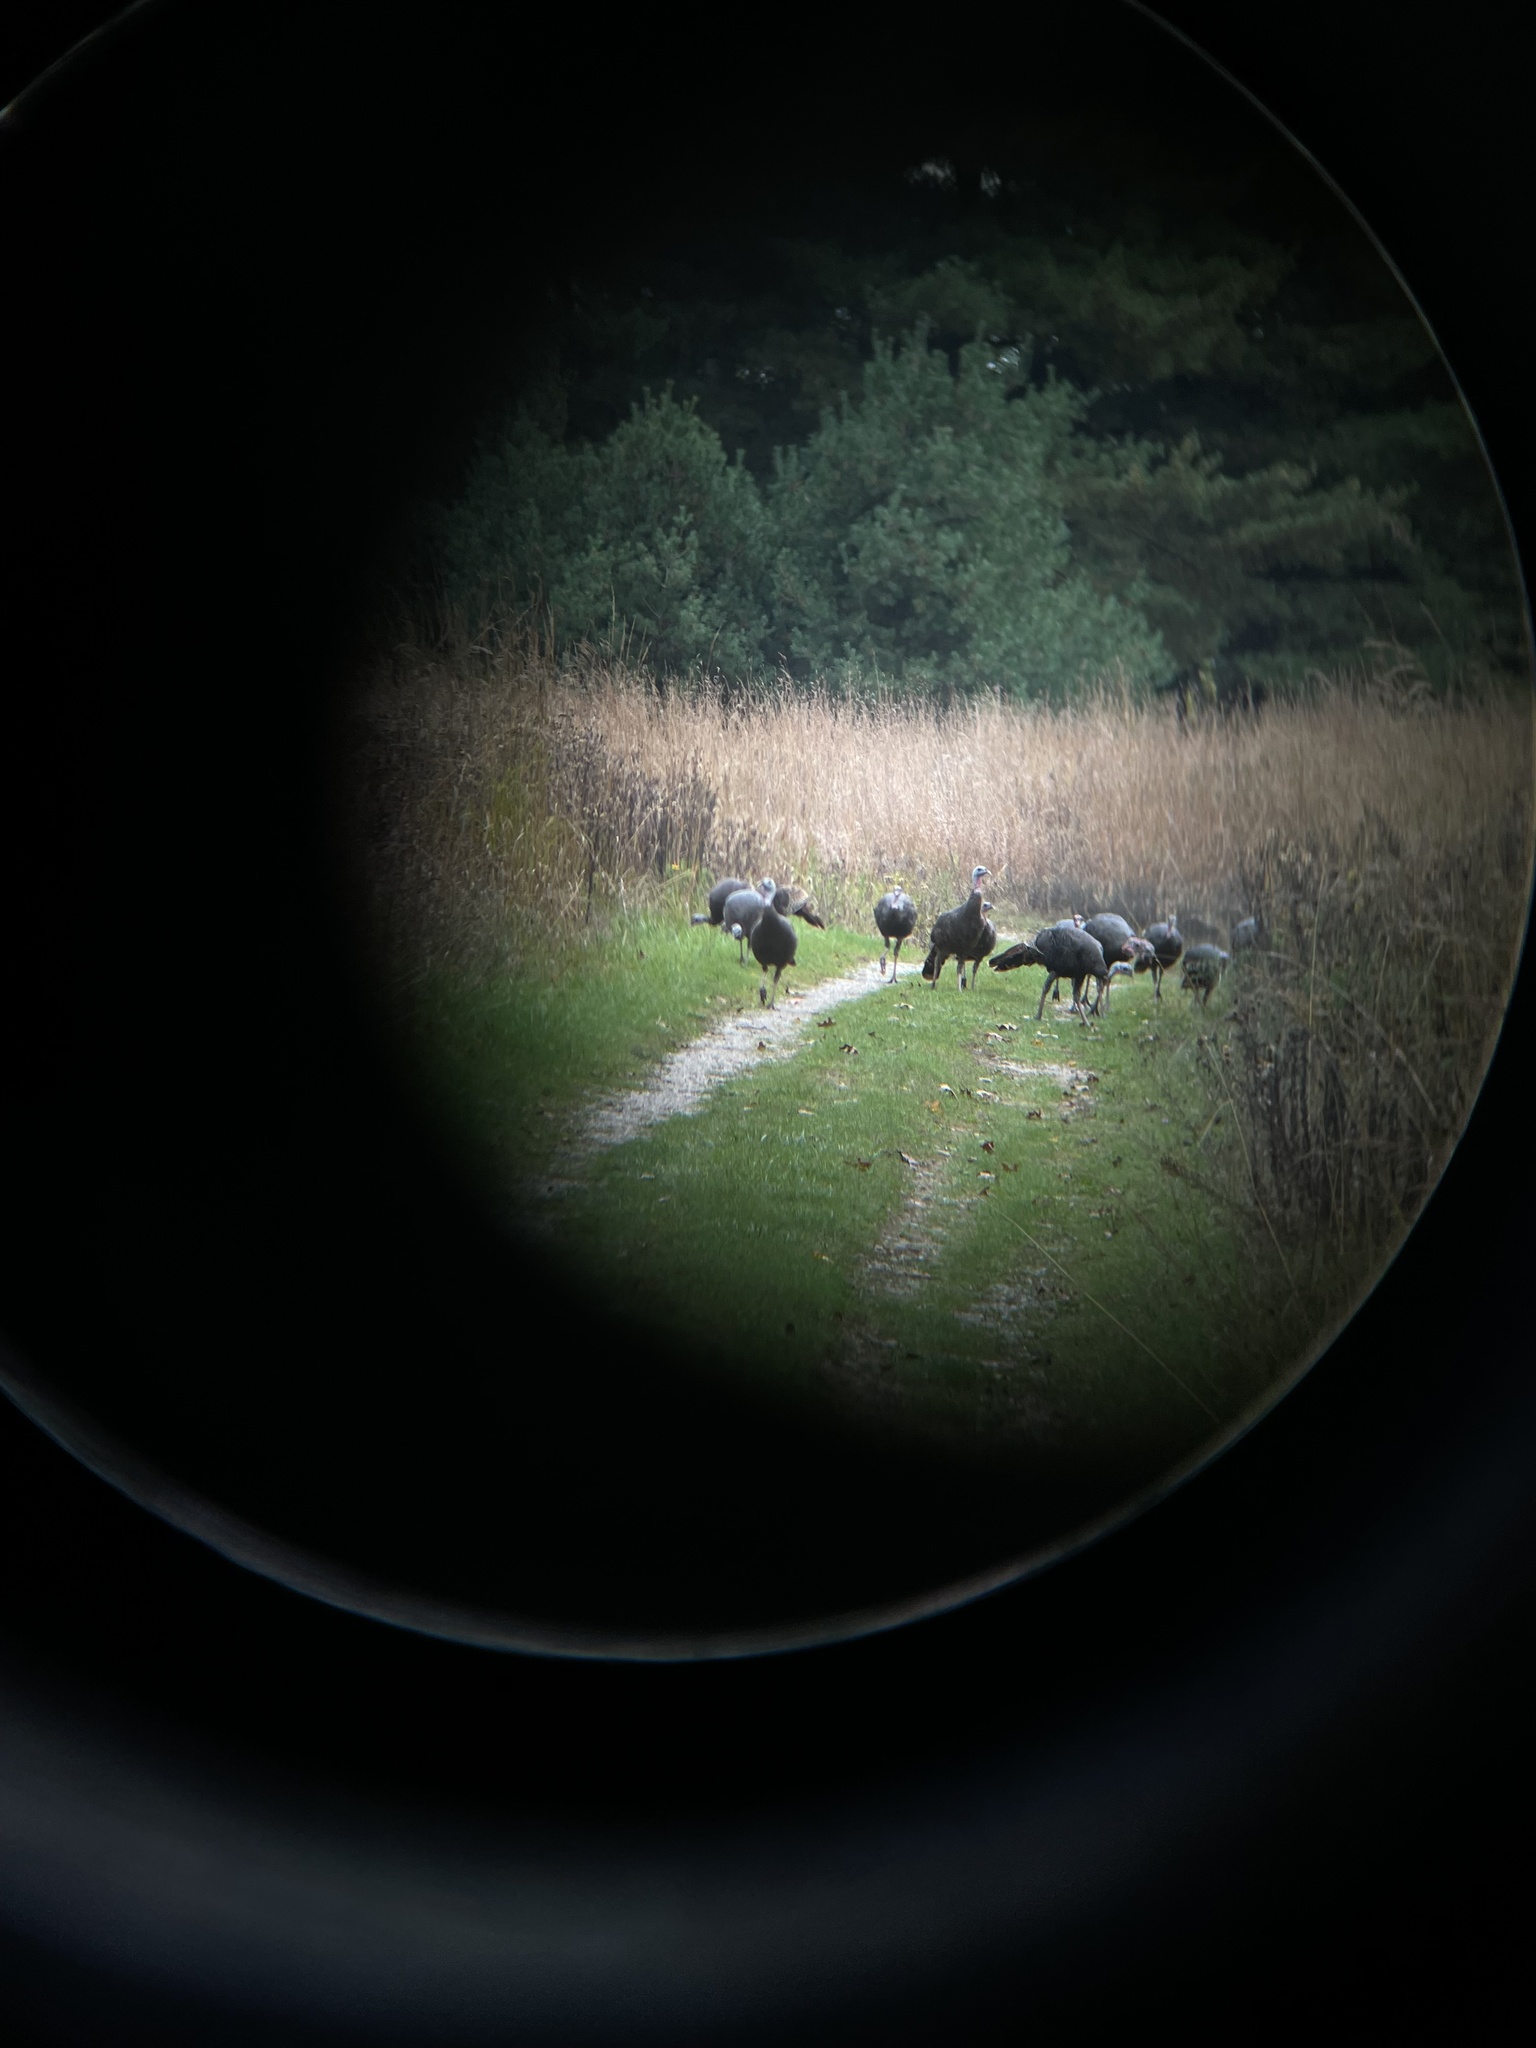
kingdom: Animalia
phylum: Chordata
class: Aves
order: Galliformes
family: Phasianidae
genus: Meleagris
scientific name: Meleagris gallopavo
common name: Wild turkey
